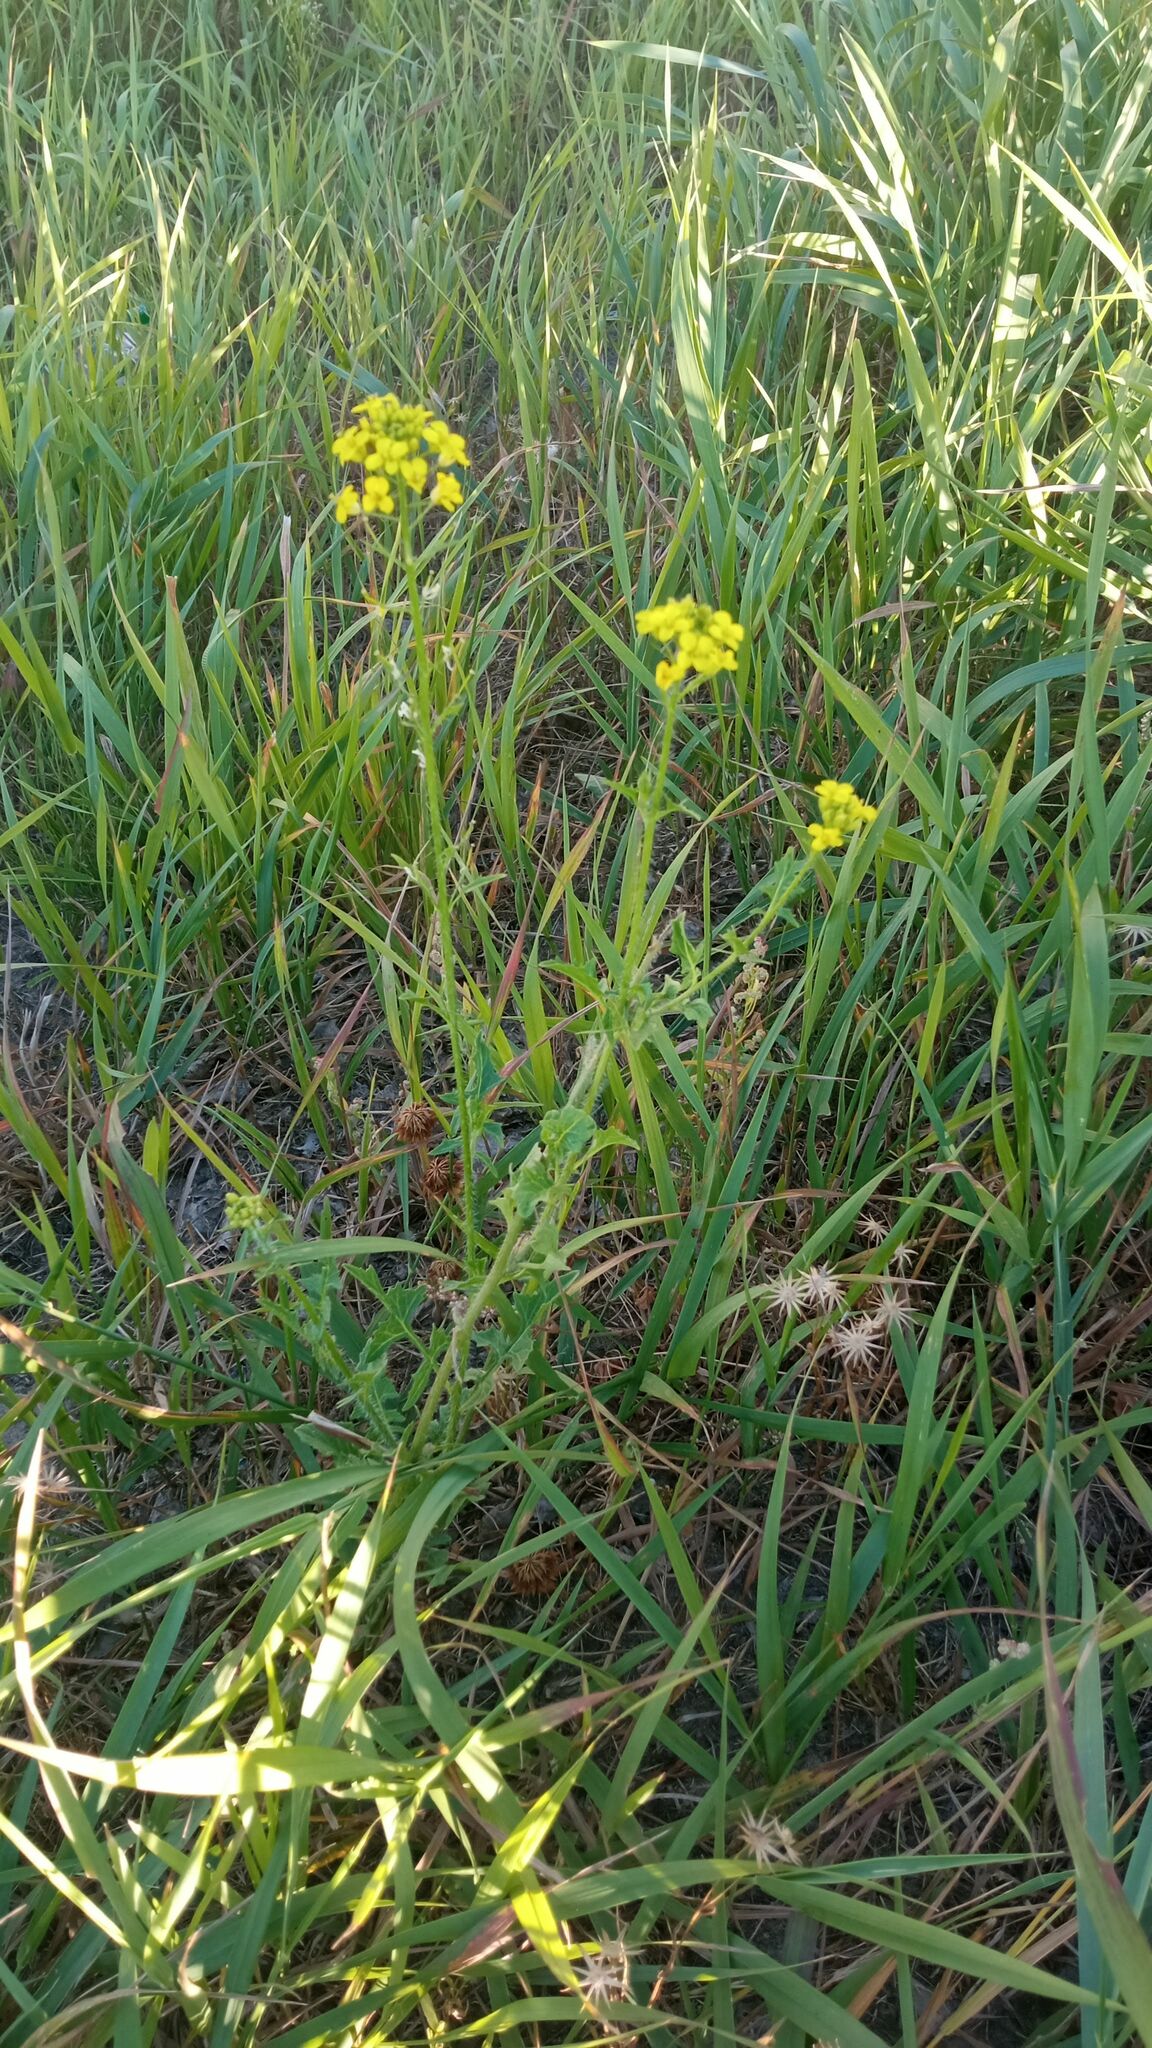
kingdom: Plantae
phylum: Tracheophyta
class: Magnoliopsida
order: Brassicales
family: Brassicaceae
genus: Sisymbrium
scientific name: Sisymbrium loeselii
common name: False london-rocket
